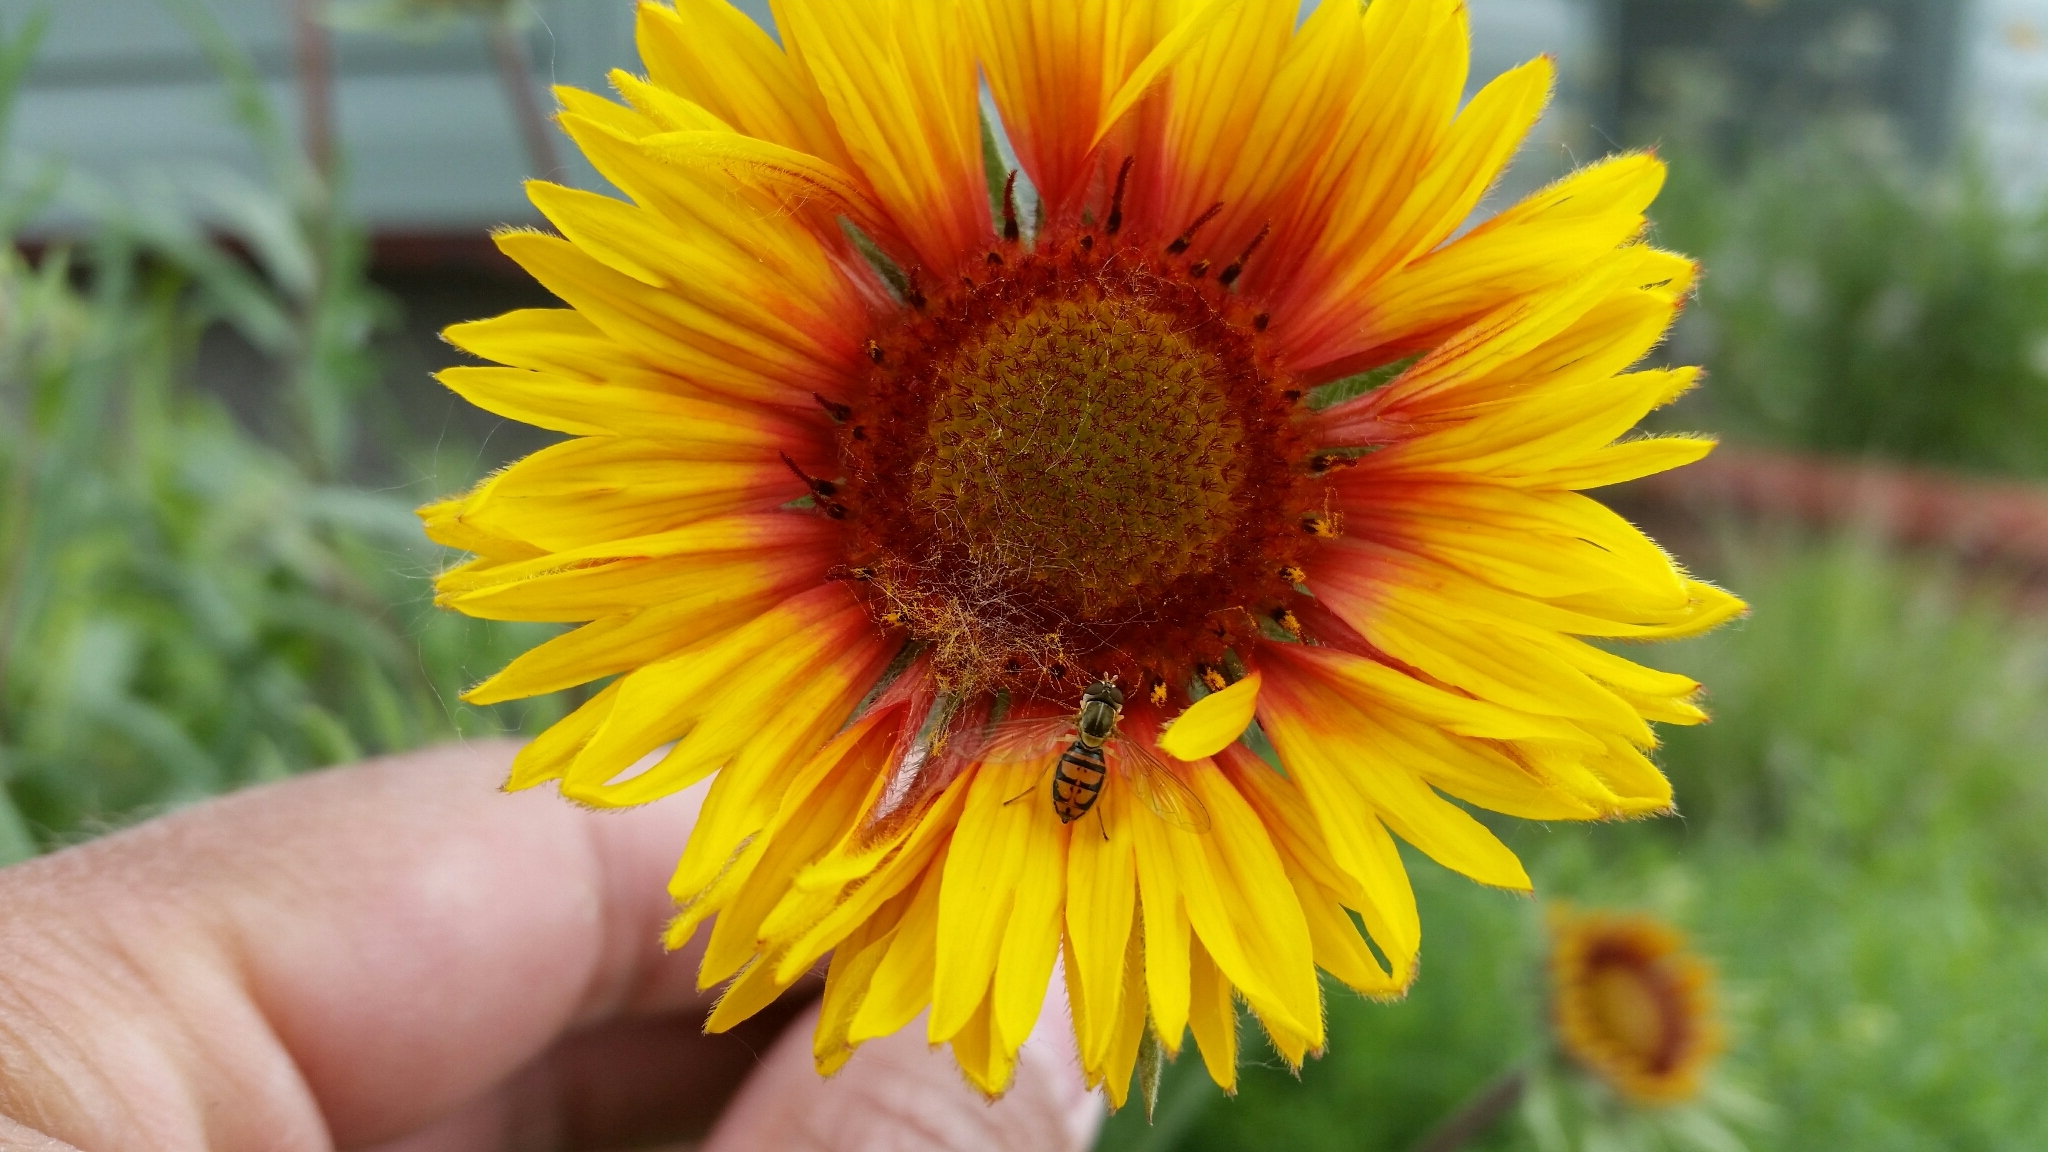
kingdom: Animalia
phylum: Arthropoda
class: Insecta
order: Diptera
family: Syrphidae
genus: Toxomerus
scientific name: Toxomerus marginatus
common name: Syrphid fly
